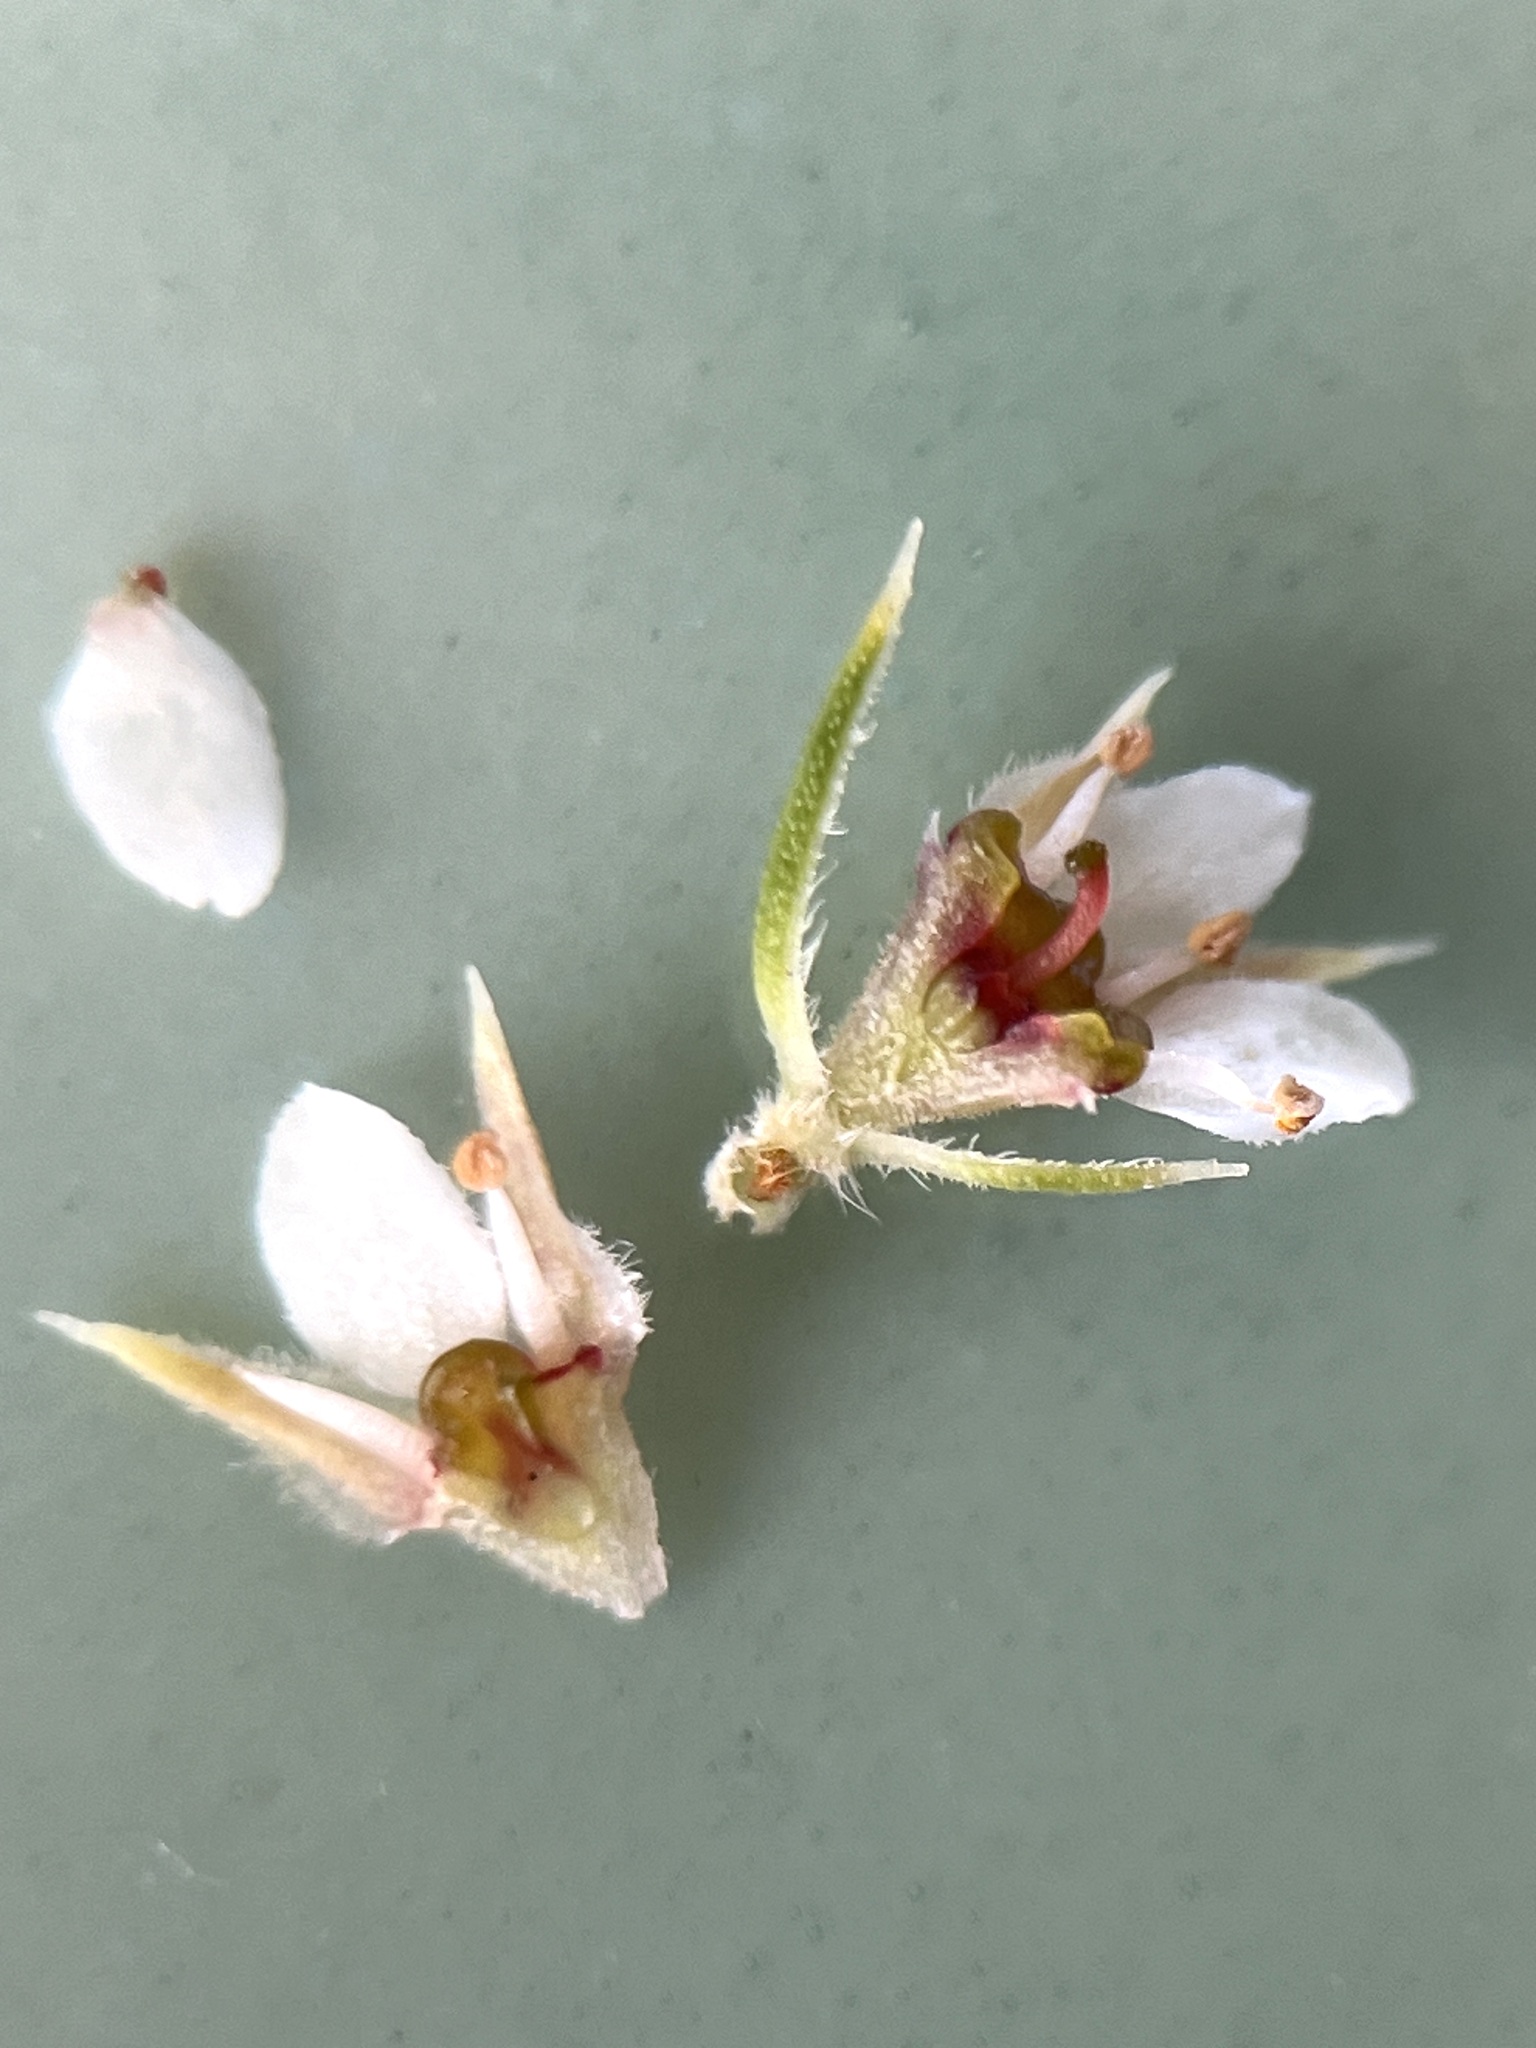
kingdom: Plantae
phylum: Tracheophyta
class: Magnoliopsida
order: Sapindales
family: Rutaceae
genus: Diosma
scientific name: Diosma subulata
